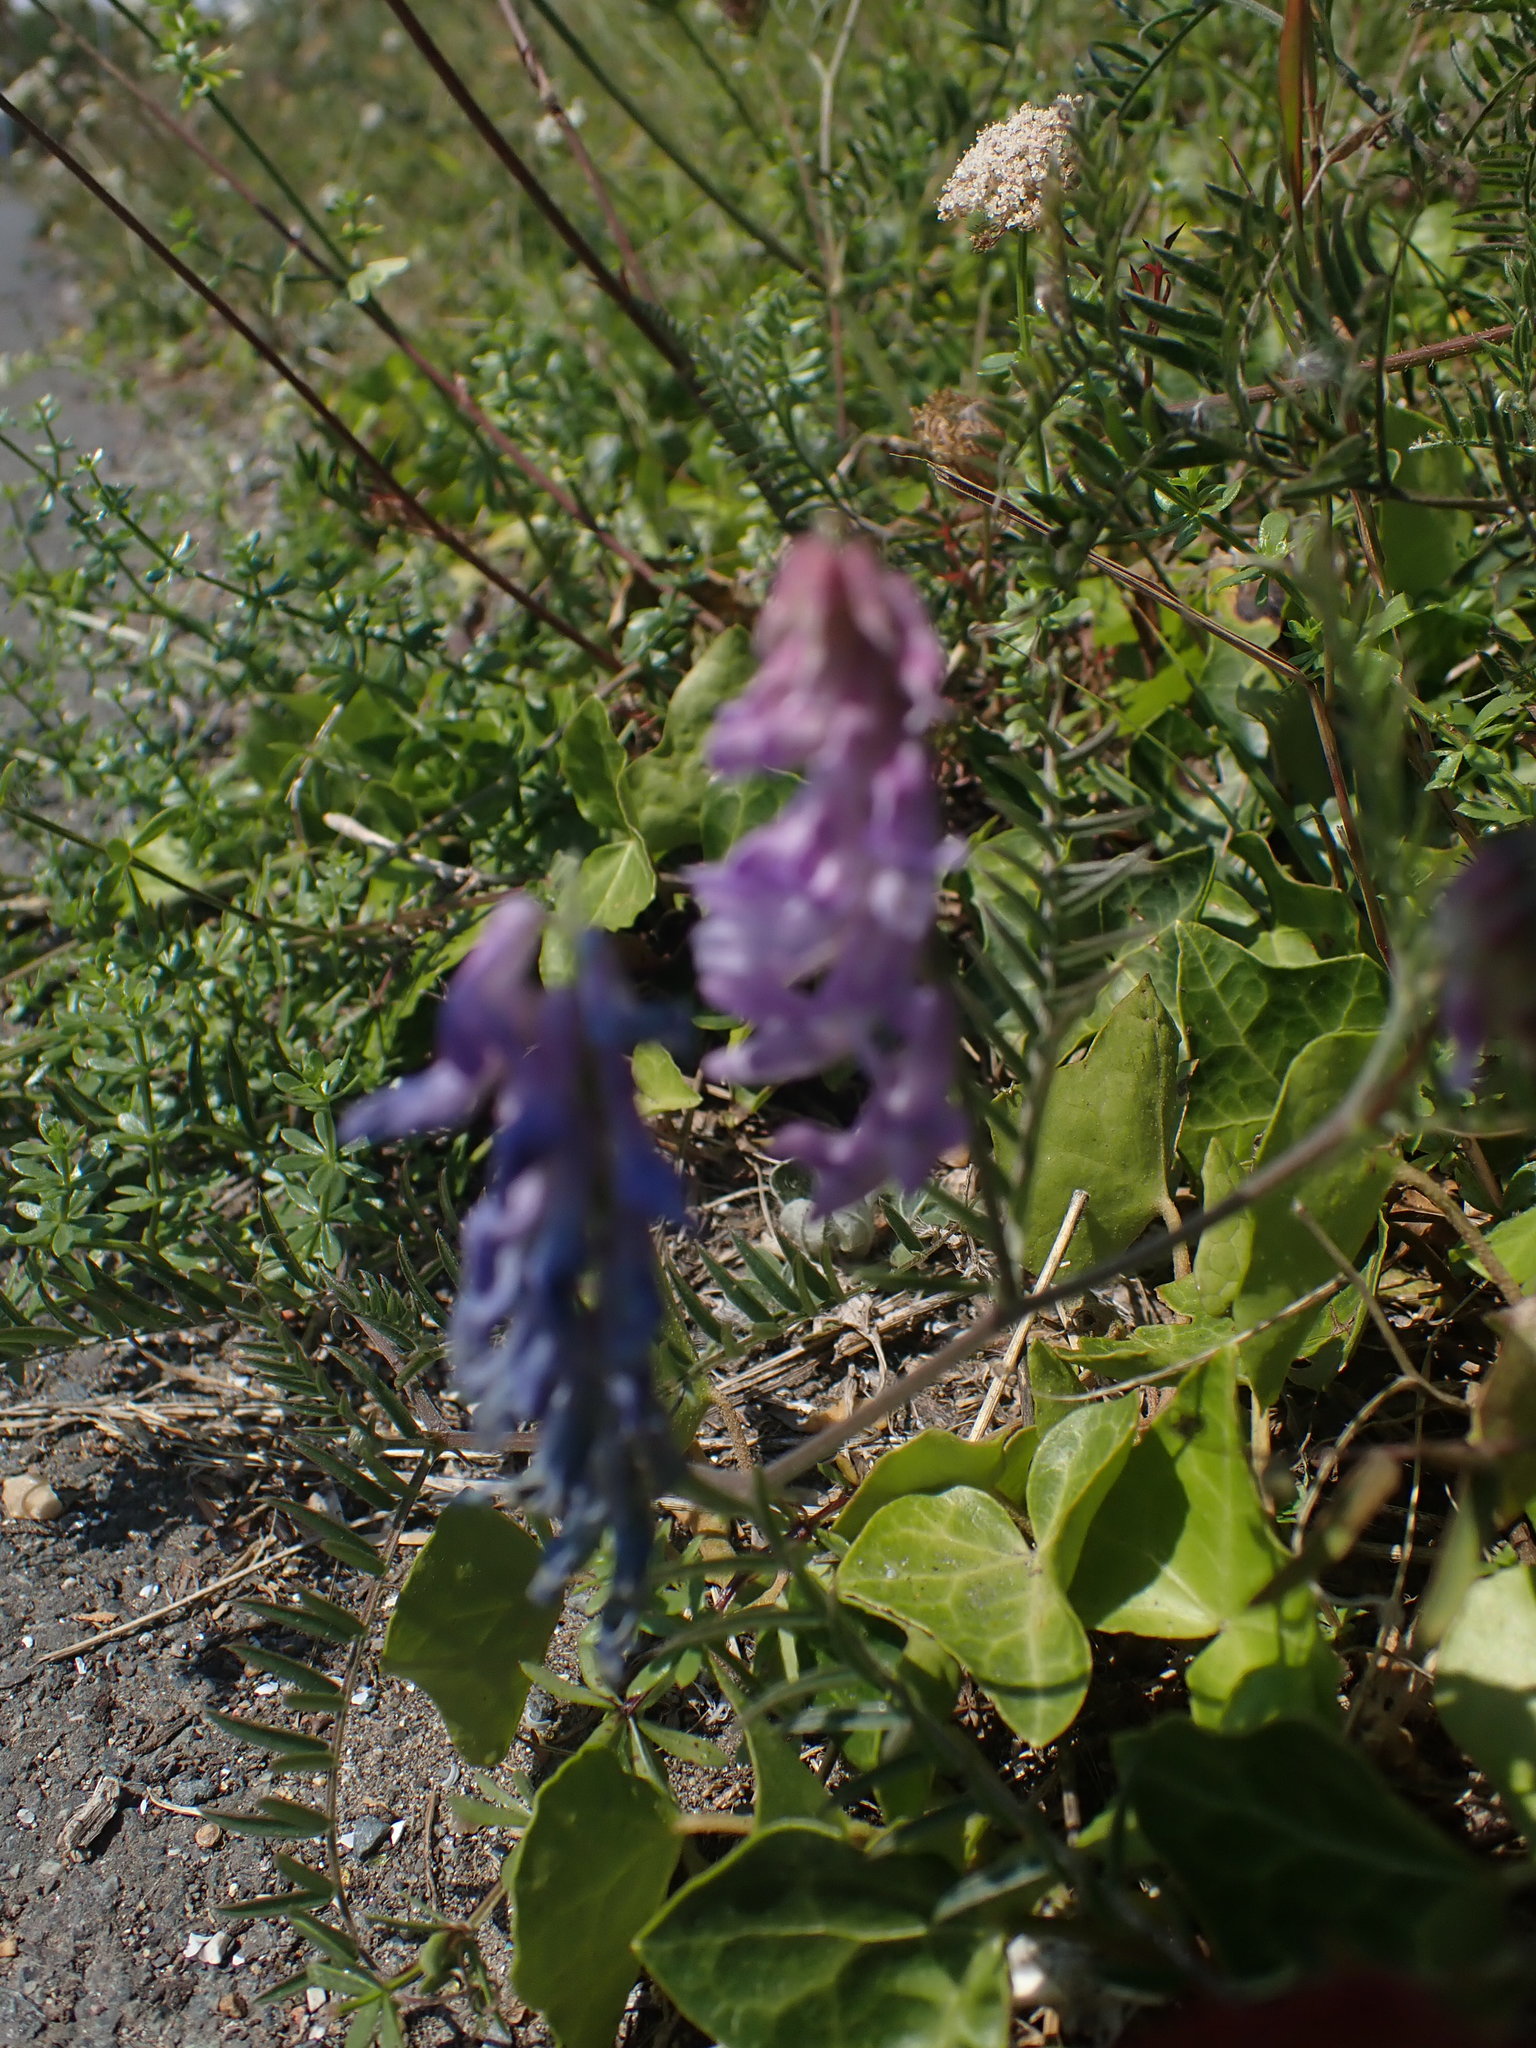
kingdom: Plantae
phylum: Tracheophyta
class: Magnoliopsida
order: Fabales
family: Fabaceae
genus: Vicia
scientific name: Vicia cracca
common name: Bird vetch
